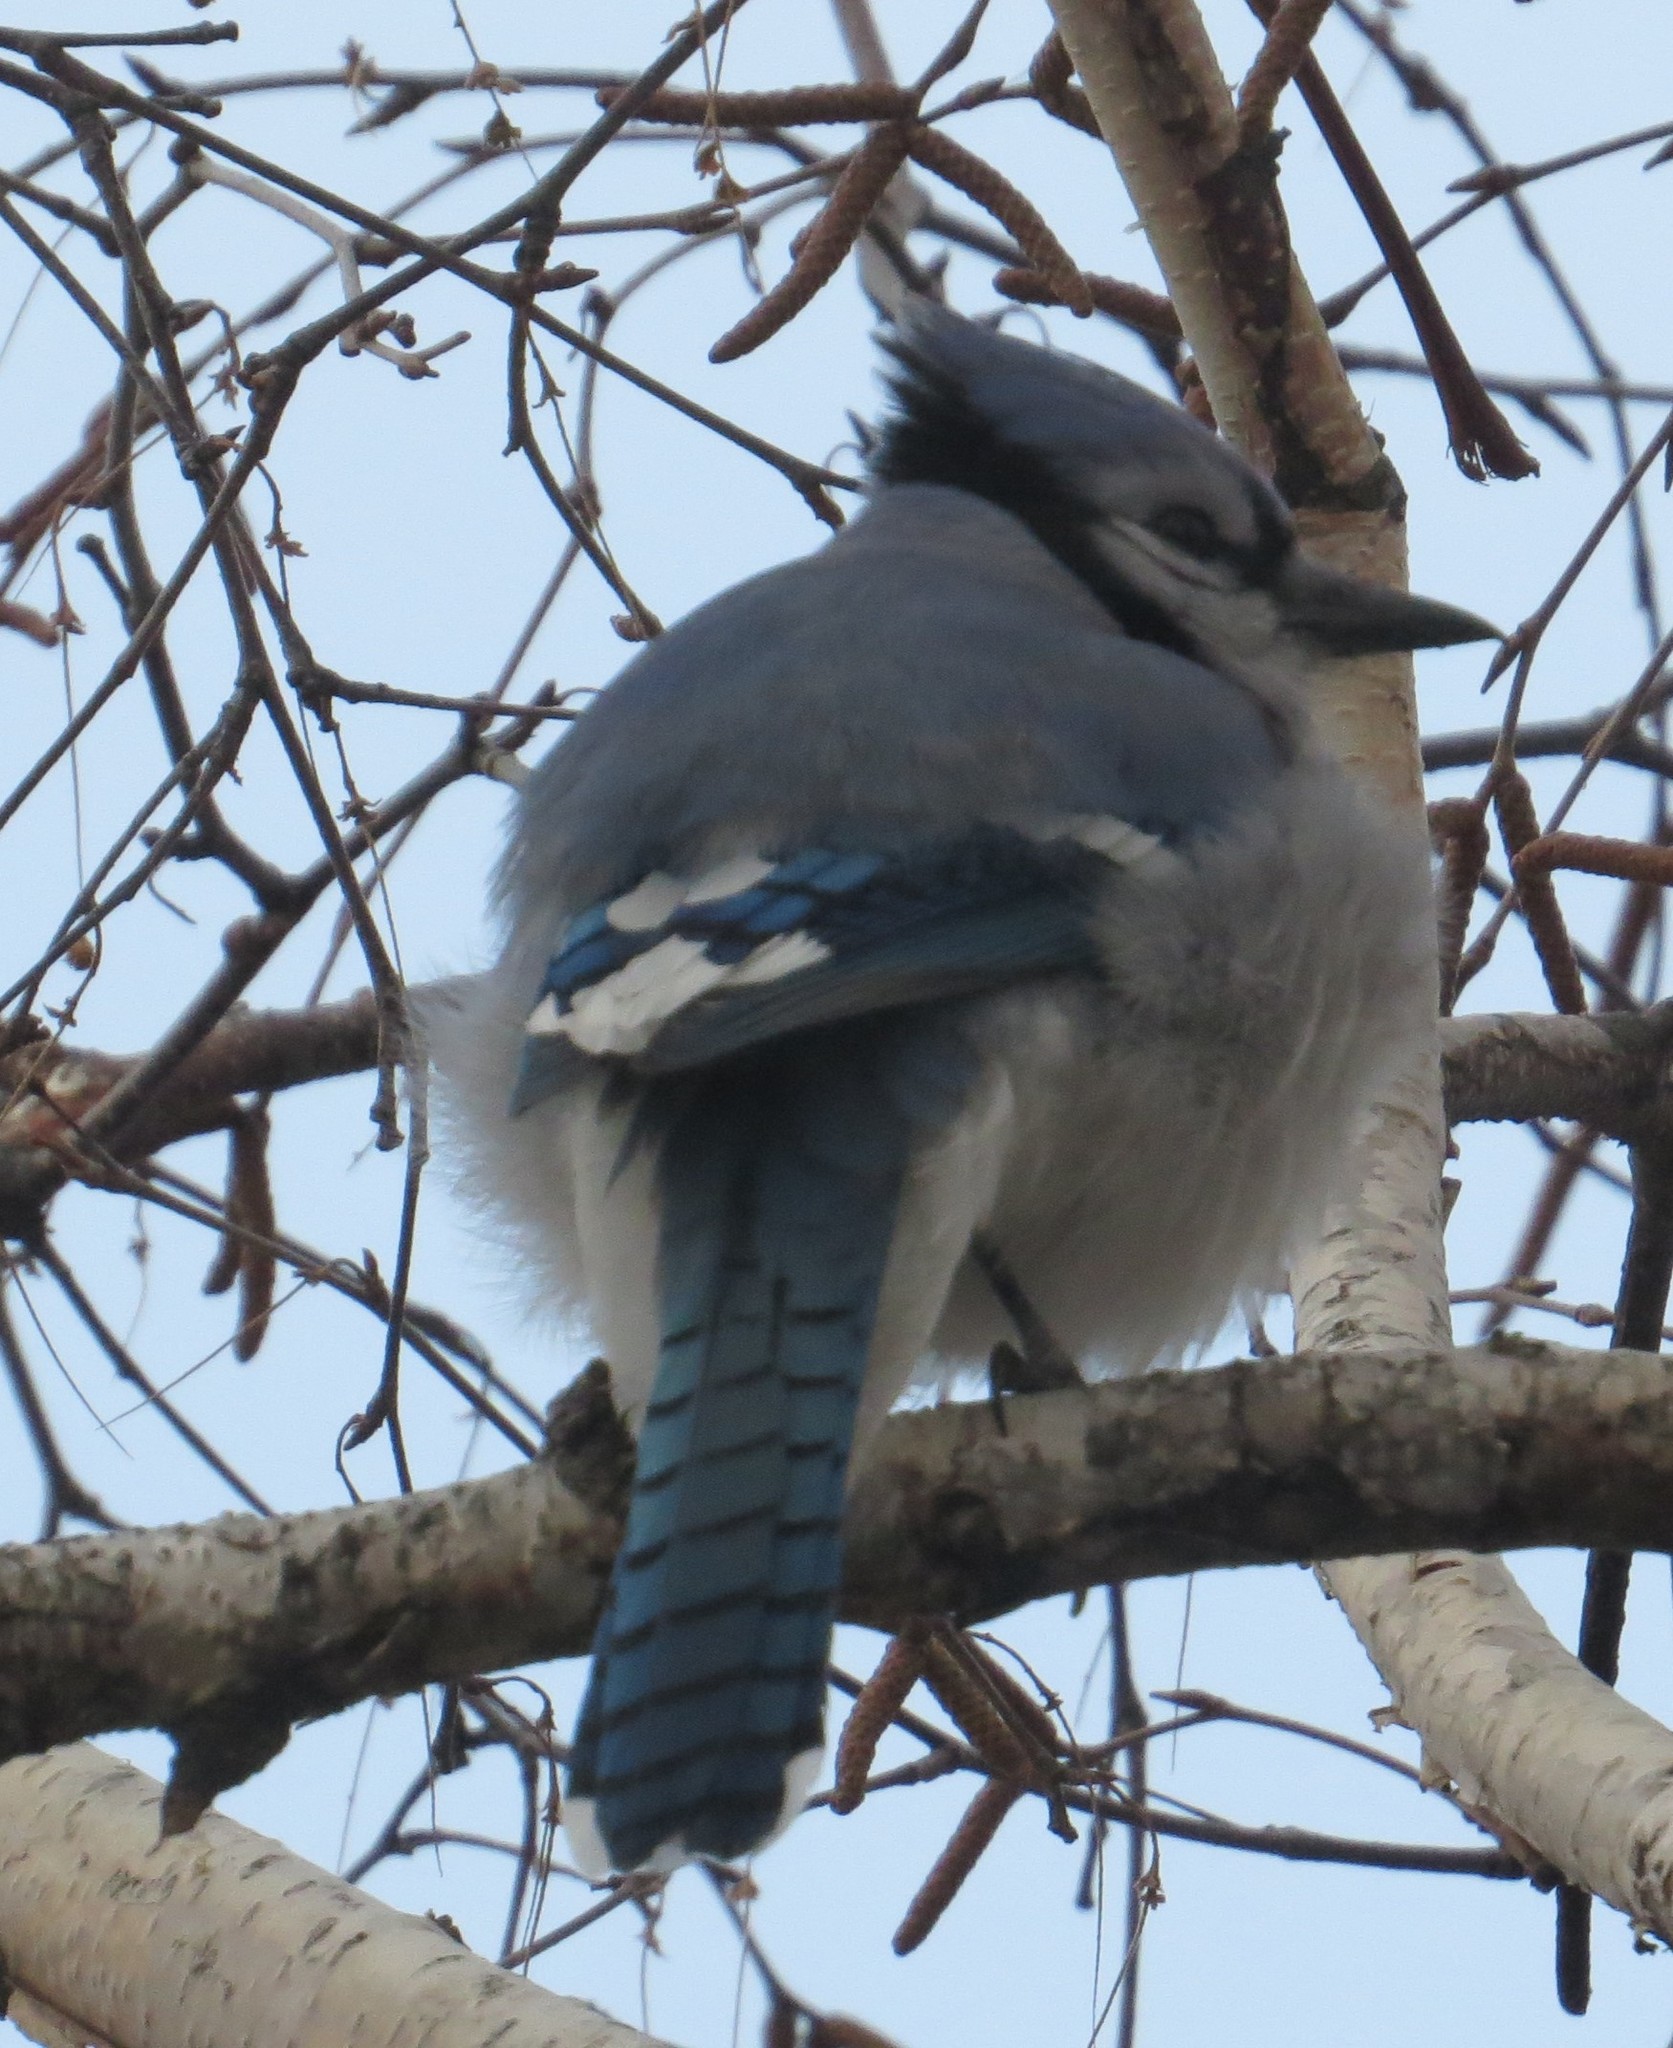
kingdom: Animalia
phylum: Chordata
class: Aves
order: Passeriformes
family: Corvidae
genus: Cyanocitta
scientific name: Cyanocitta cristata
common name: Blue jay
